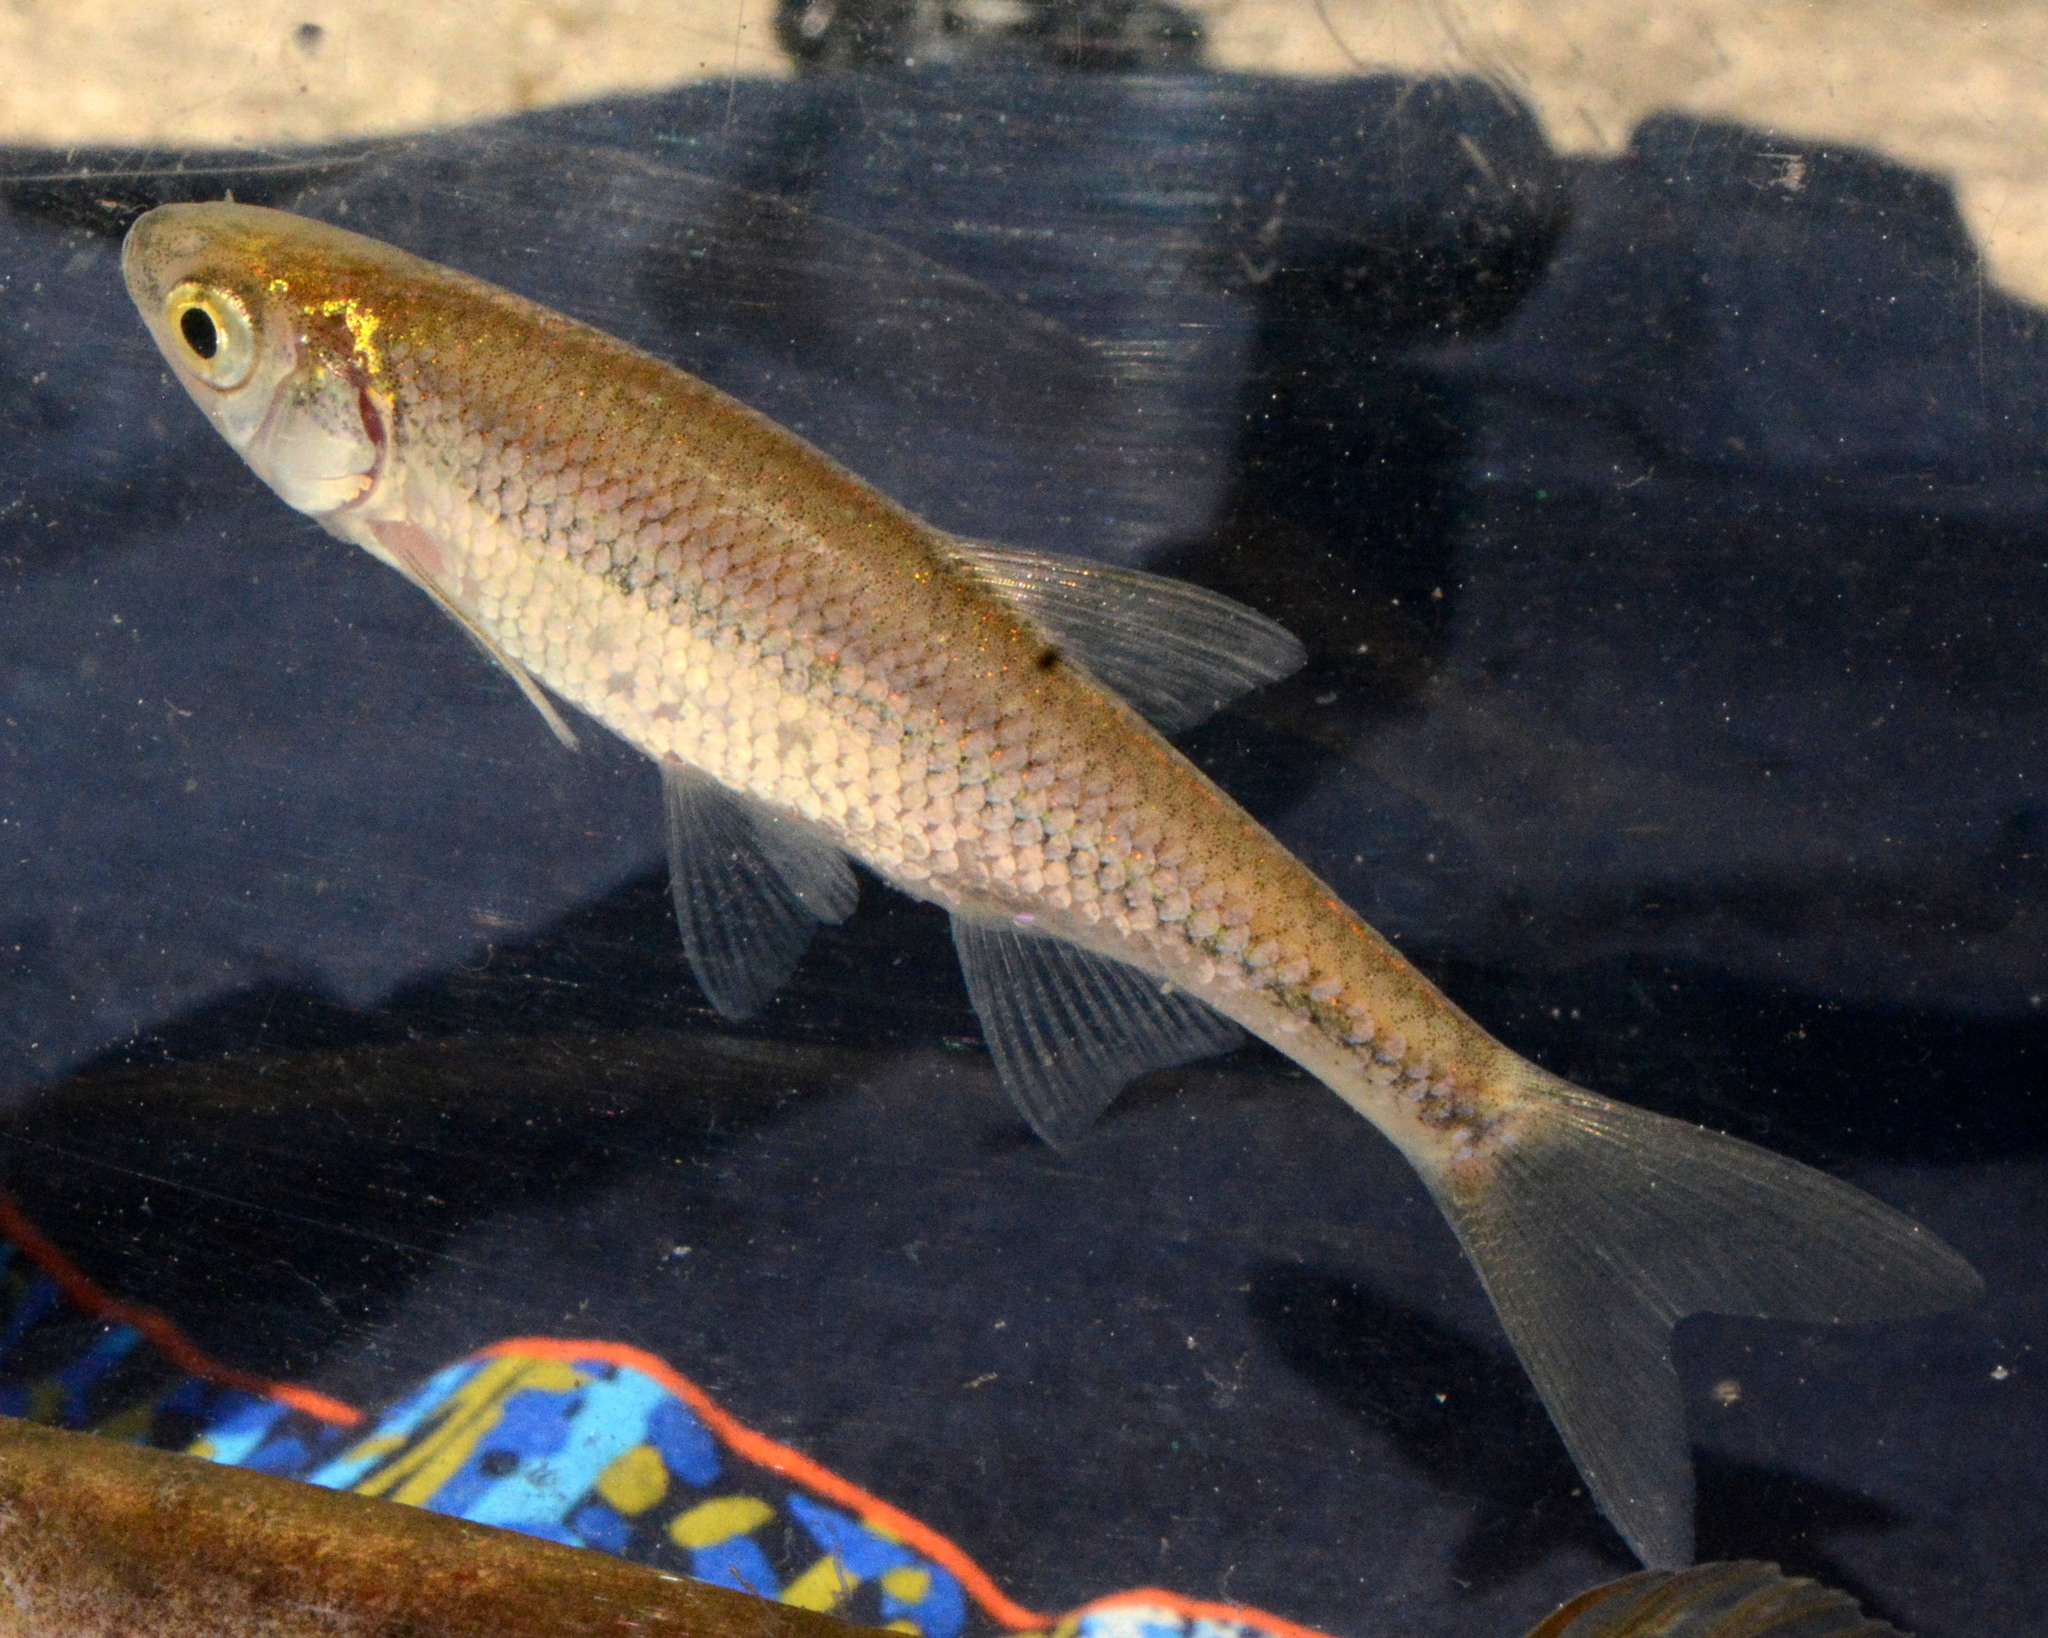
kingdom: Animalia
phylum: Chordata
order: Cypriniformes
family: Cyprinidae
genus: Notemigonus
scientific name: Notemigonus crysoleucas
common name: Golden shiner
